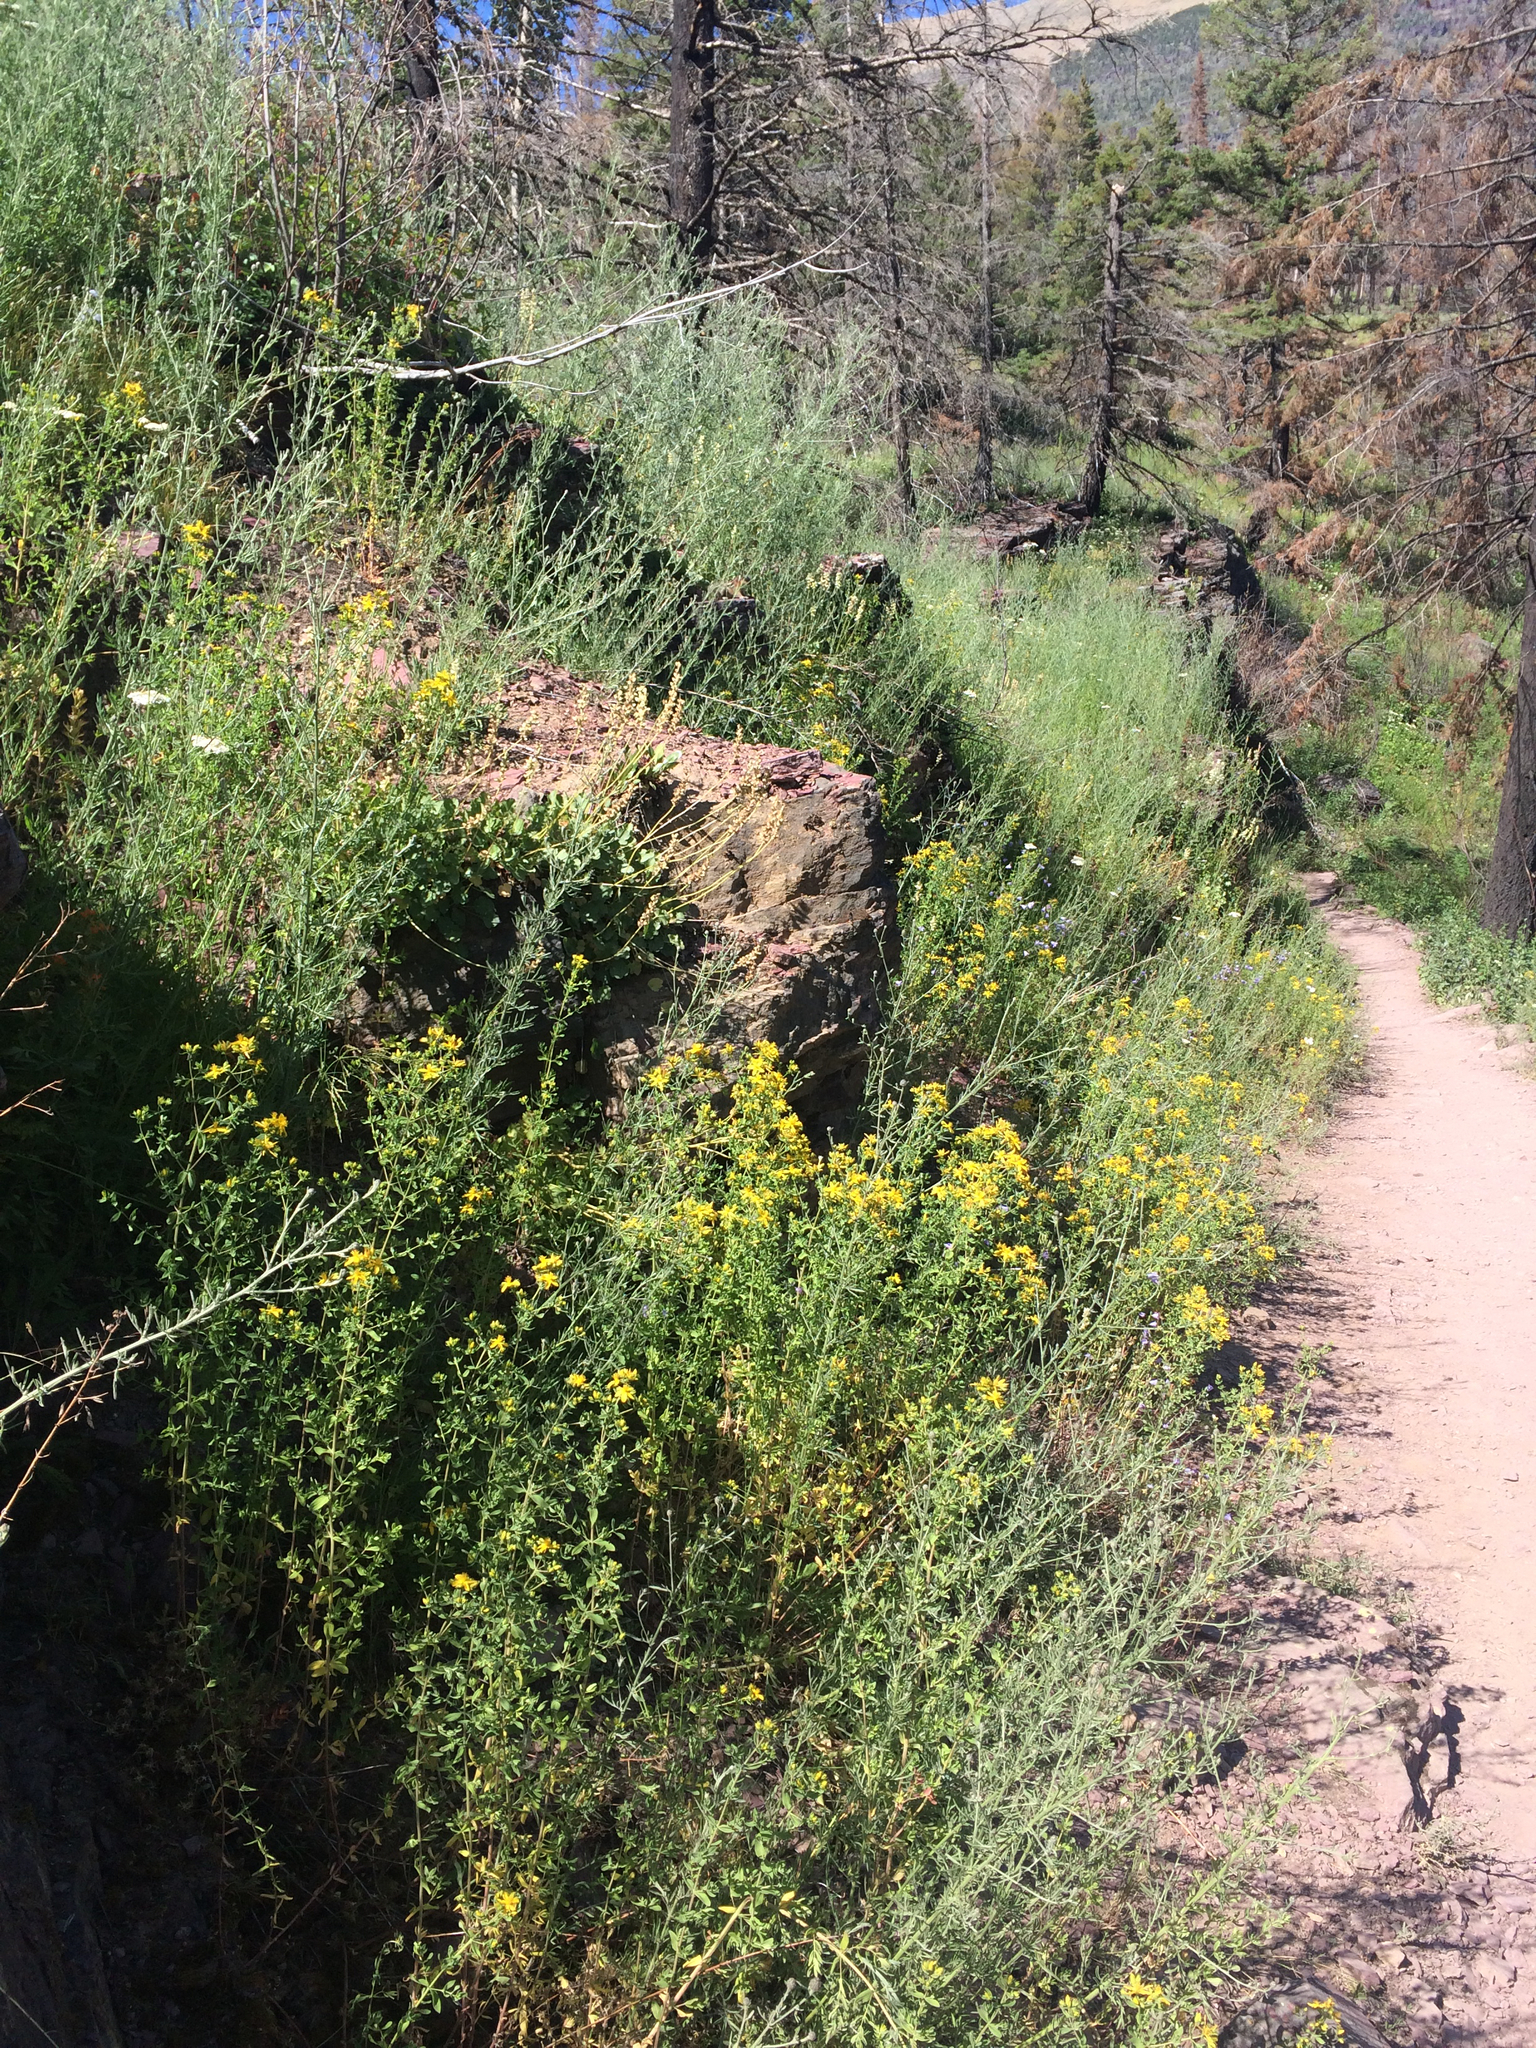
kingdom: Plantae
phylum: Tracheophyta
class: Magnoliopsida
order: Malpighiales
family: Hypericaceae
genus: Hypericum
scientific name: Hypericum perforatum
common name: Common st. johnswort
